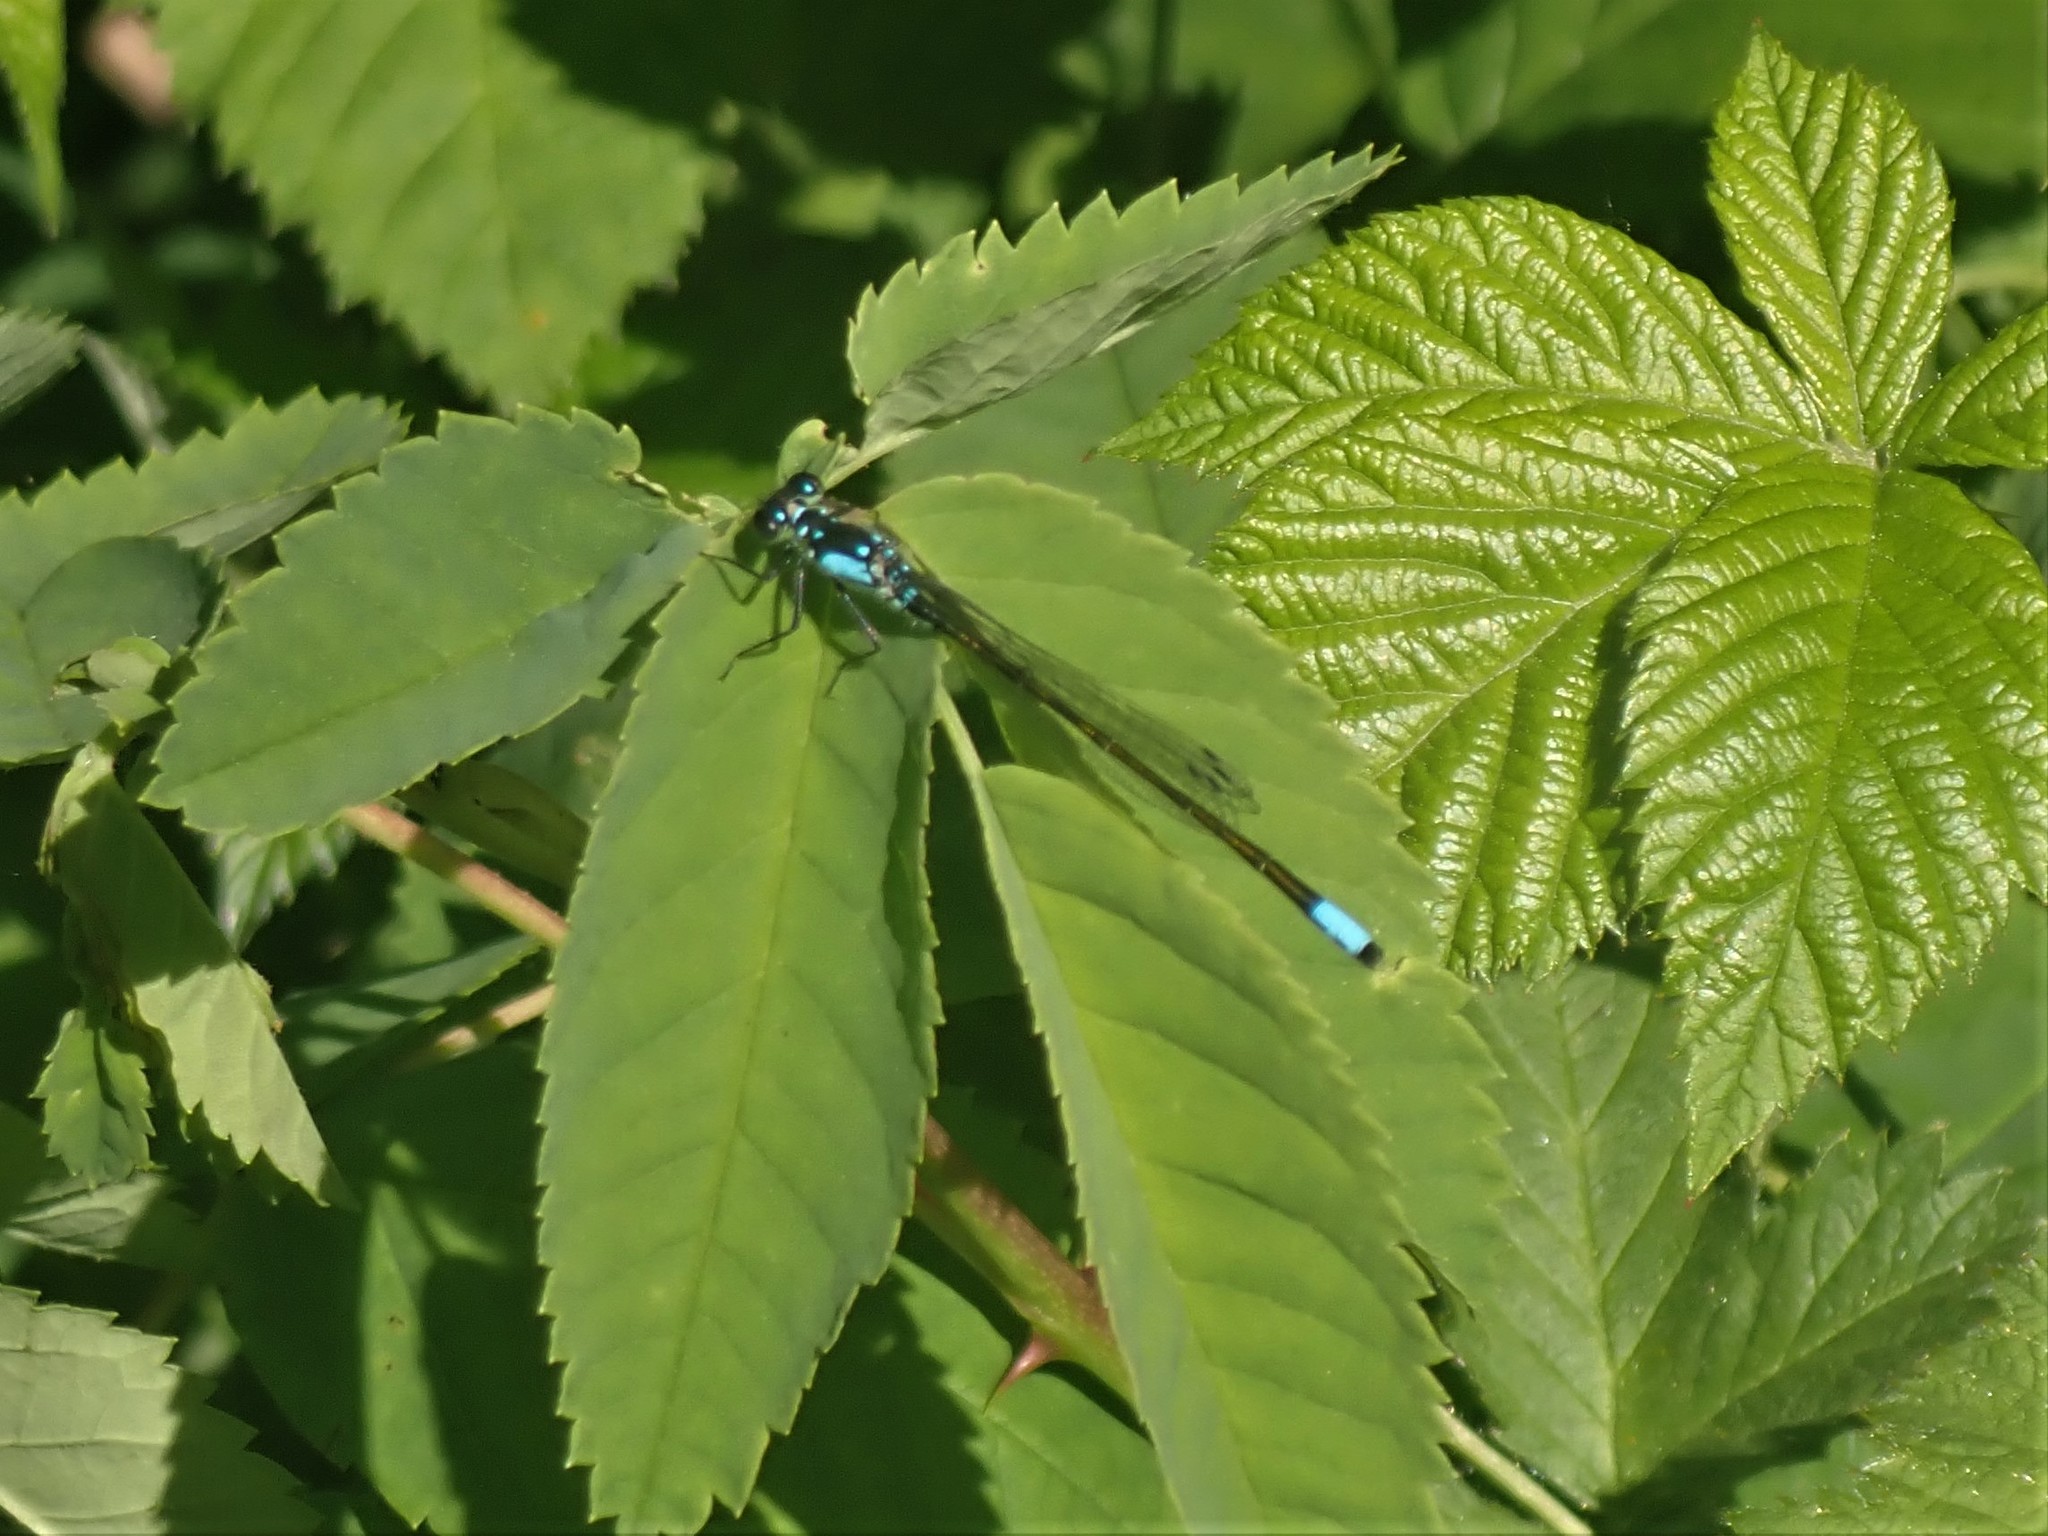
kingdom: Animalia
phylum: Arthropoda
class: Insecta
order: Odonata
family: Coenagrionidae
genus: Ischnura
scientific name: Ischnura cervula
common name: Pacific forktail
